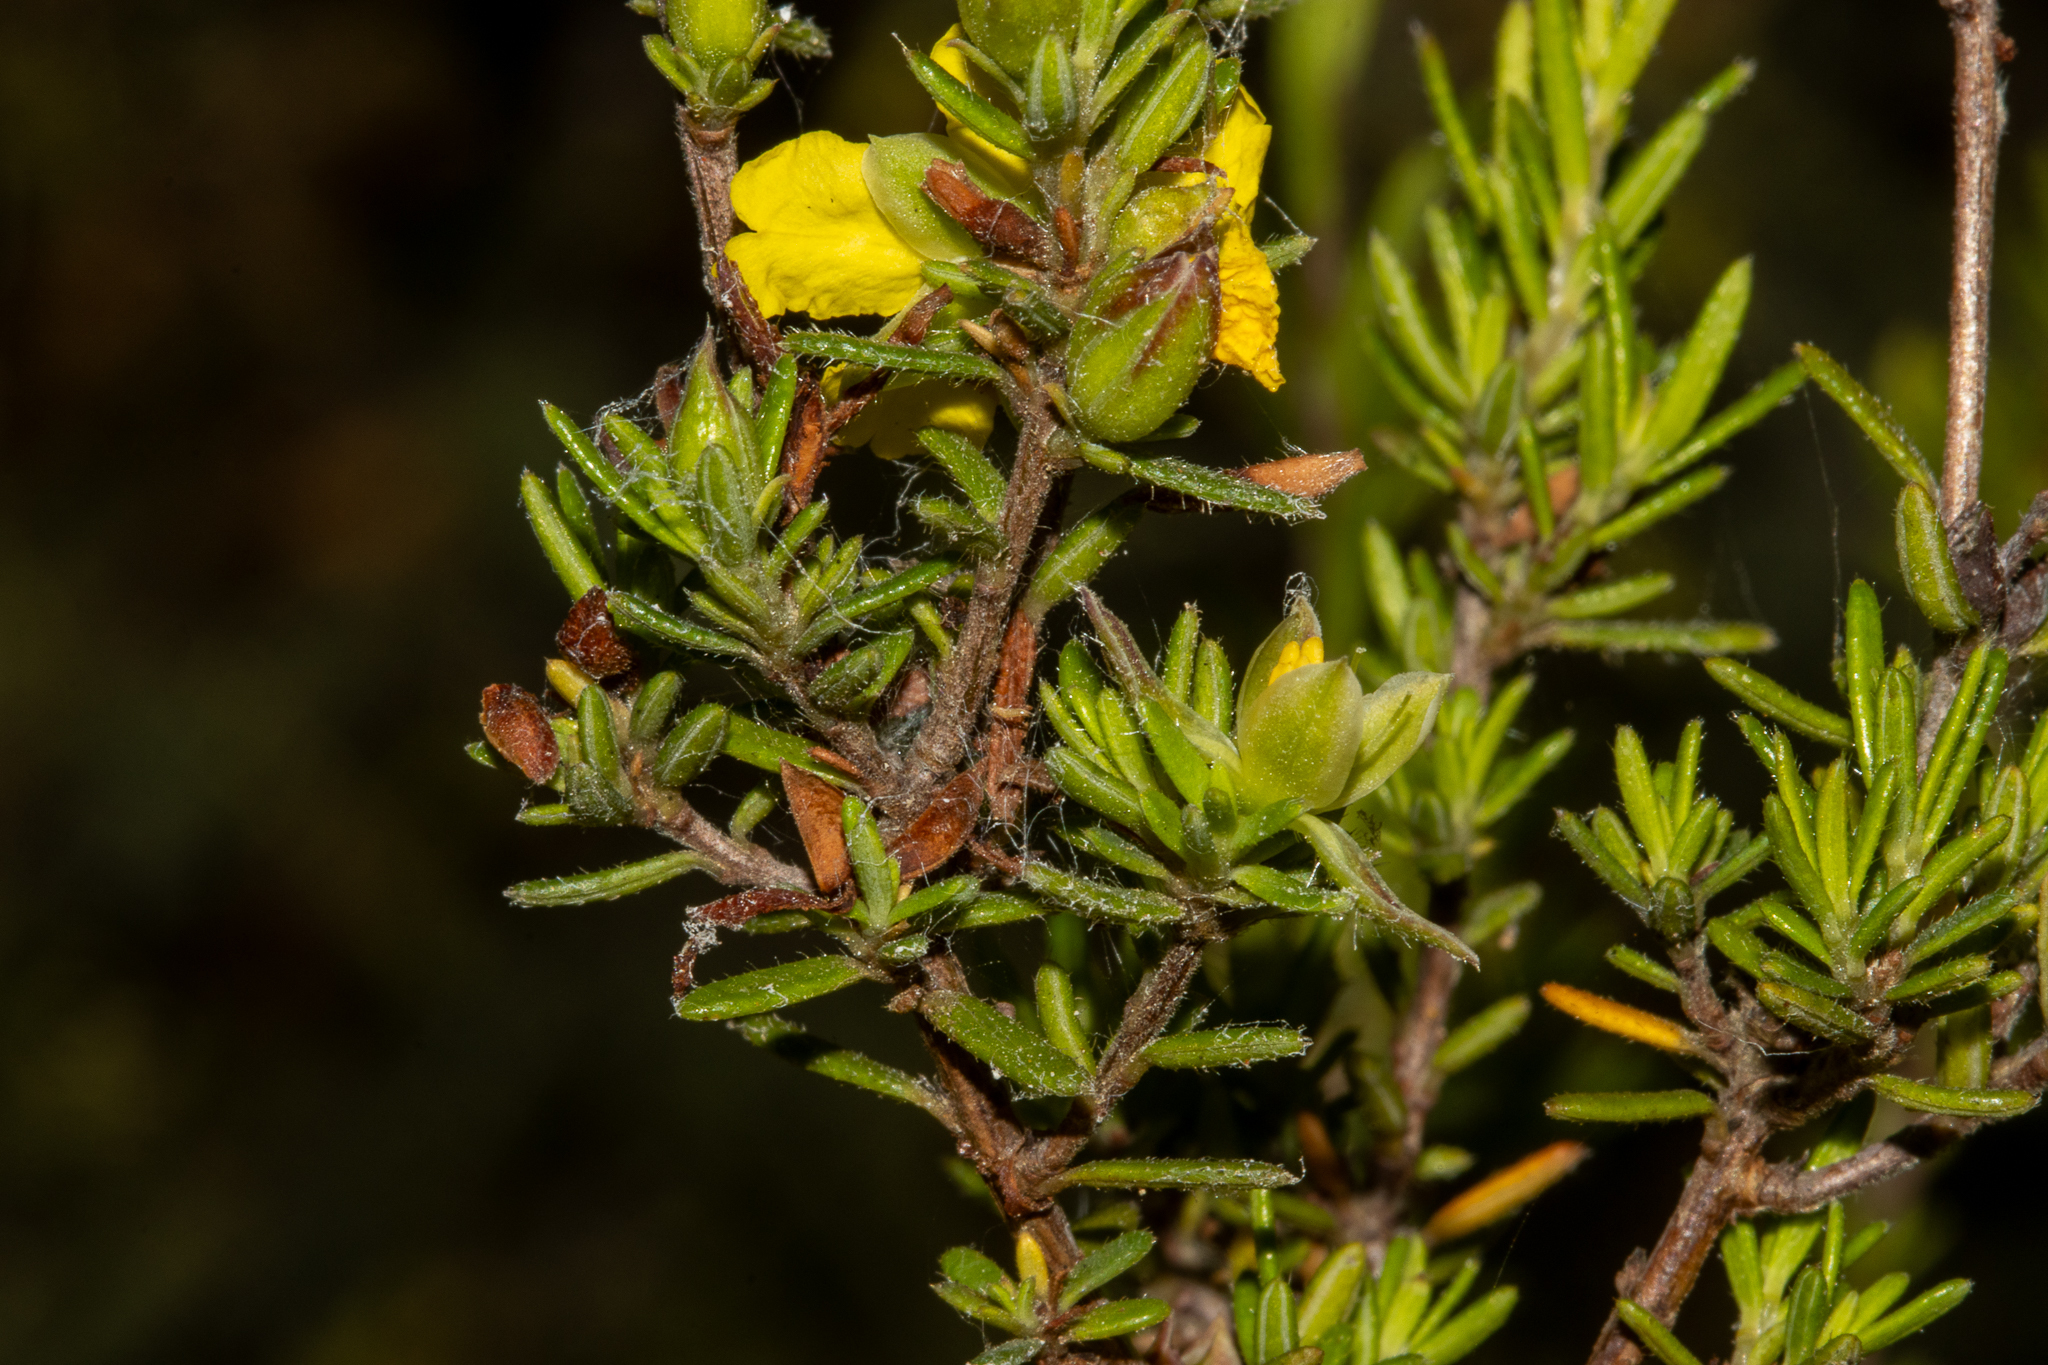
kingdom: Plantae
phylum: Tracheophyta
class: Magnoliopsida
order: Dilleniales
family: Dilleniaceae
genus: Hibbertia
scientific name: Hibbertia riparia
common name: Erect guinea-flower
